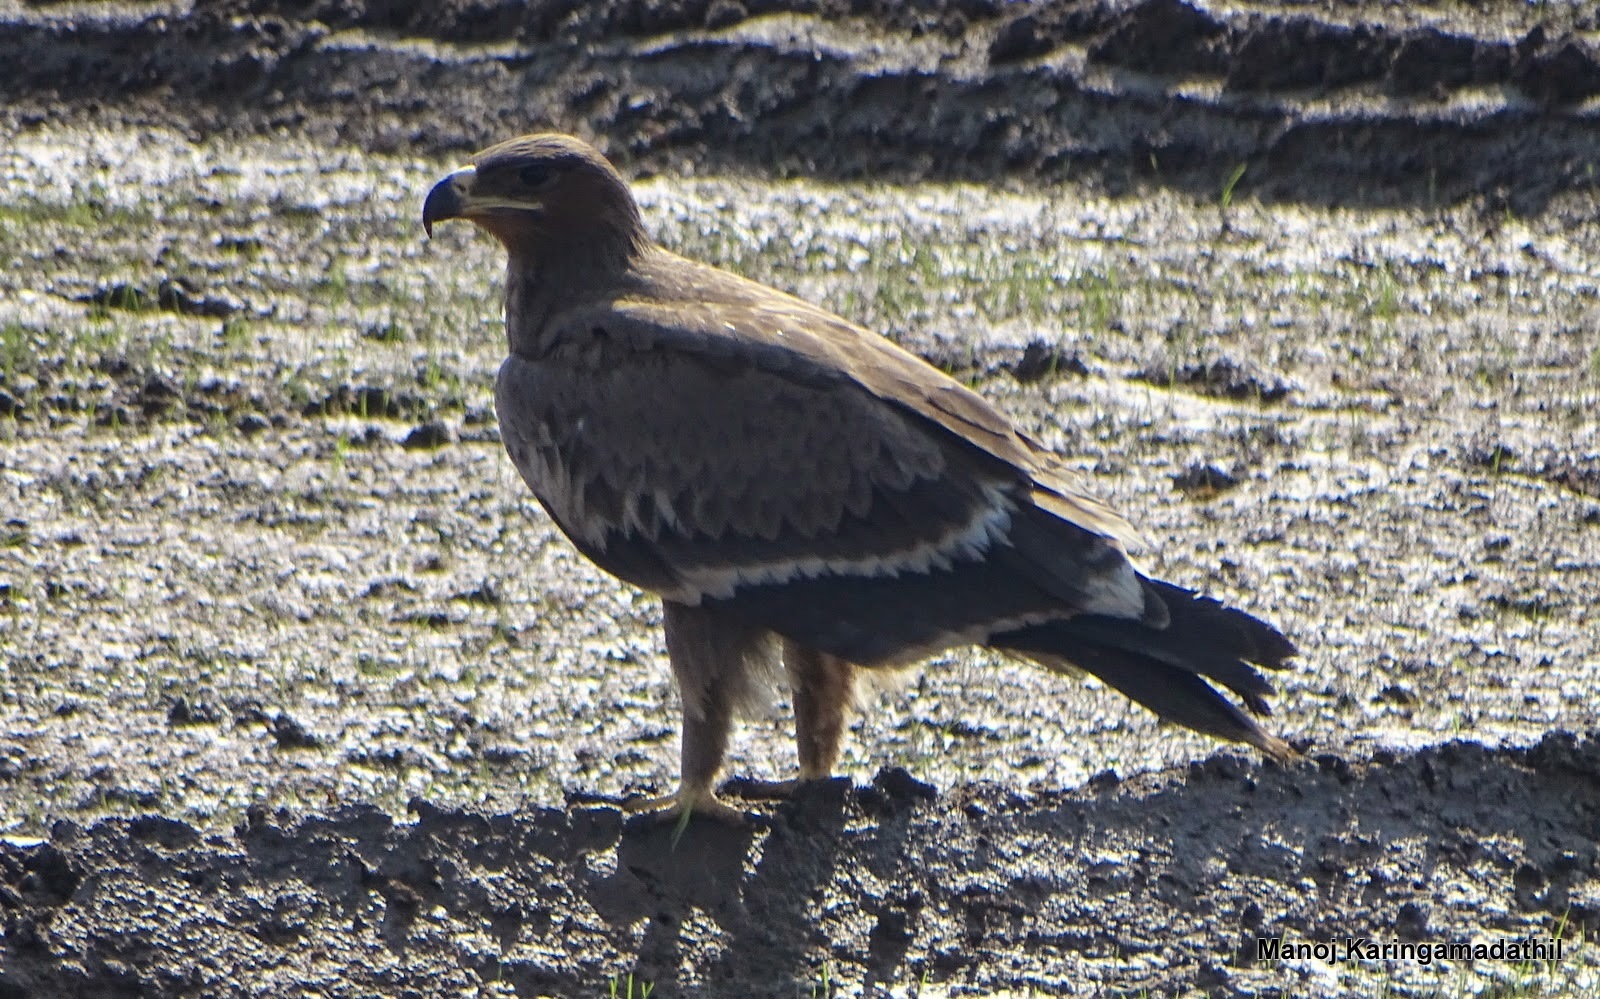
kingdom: Animalia
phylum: Chordata
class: Aves
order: Accipitriformes
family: Accipitridae
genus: Aquila
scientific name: Aquila nipalensis
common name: Steppe eagle
